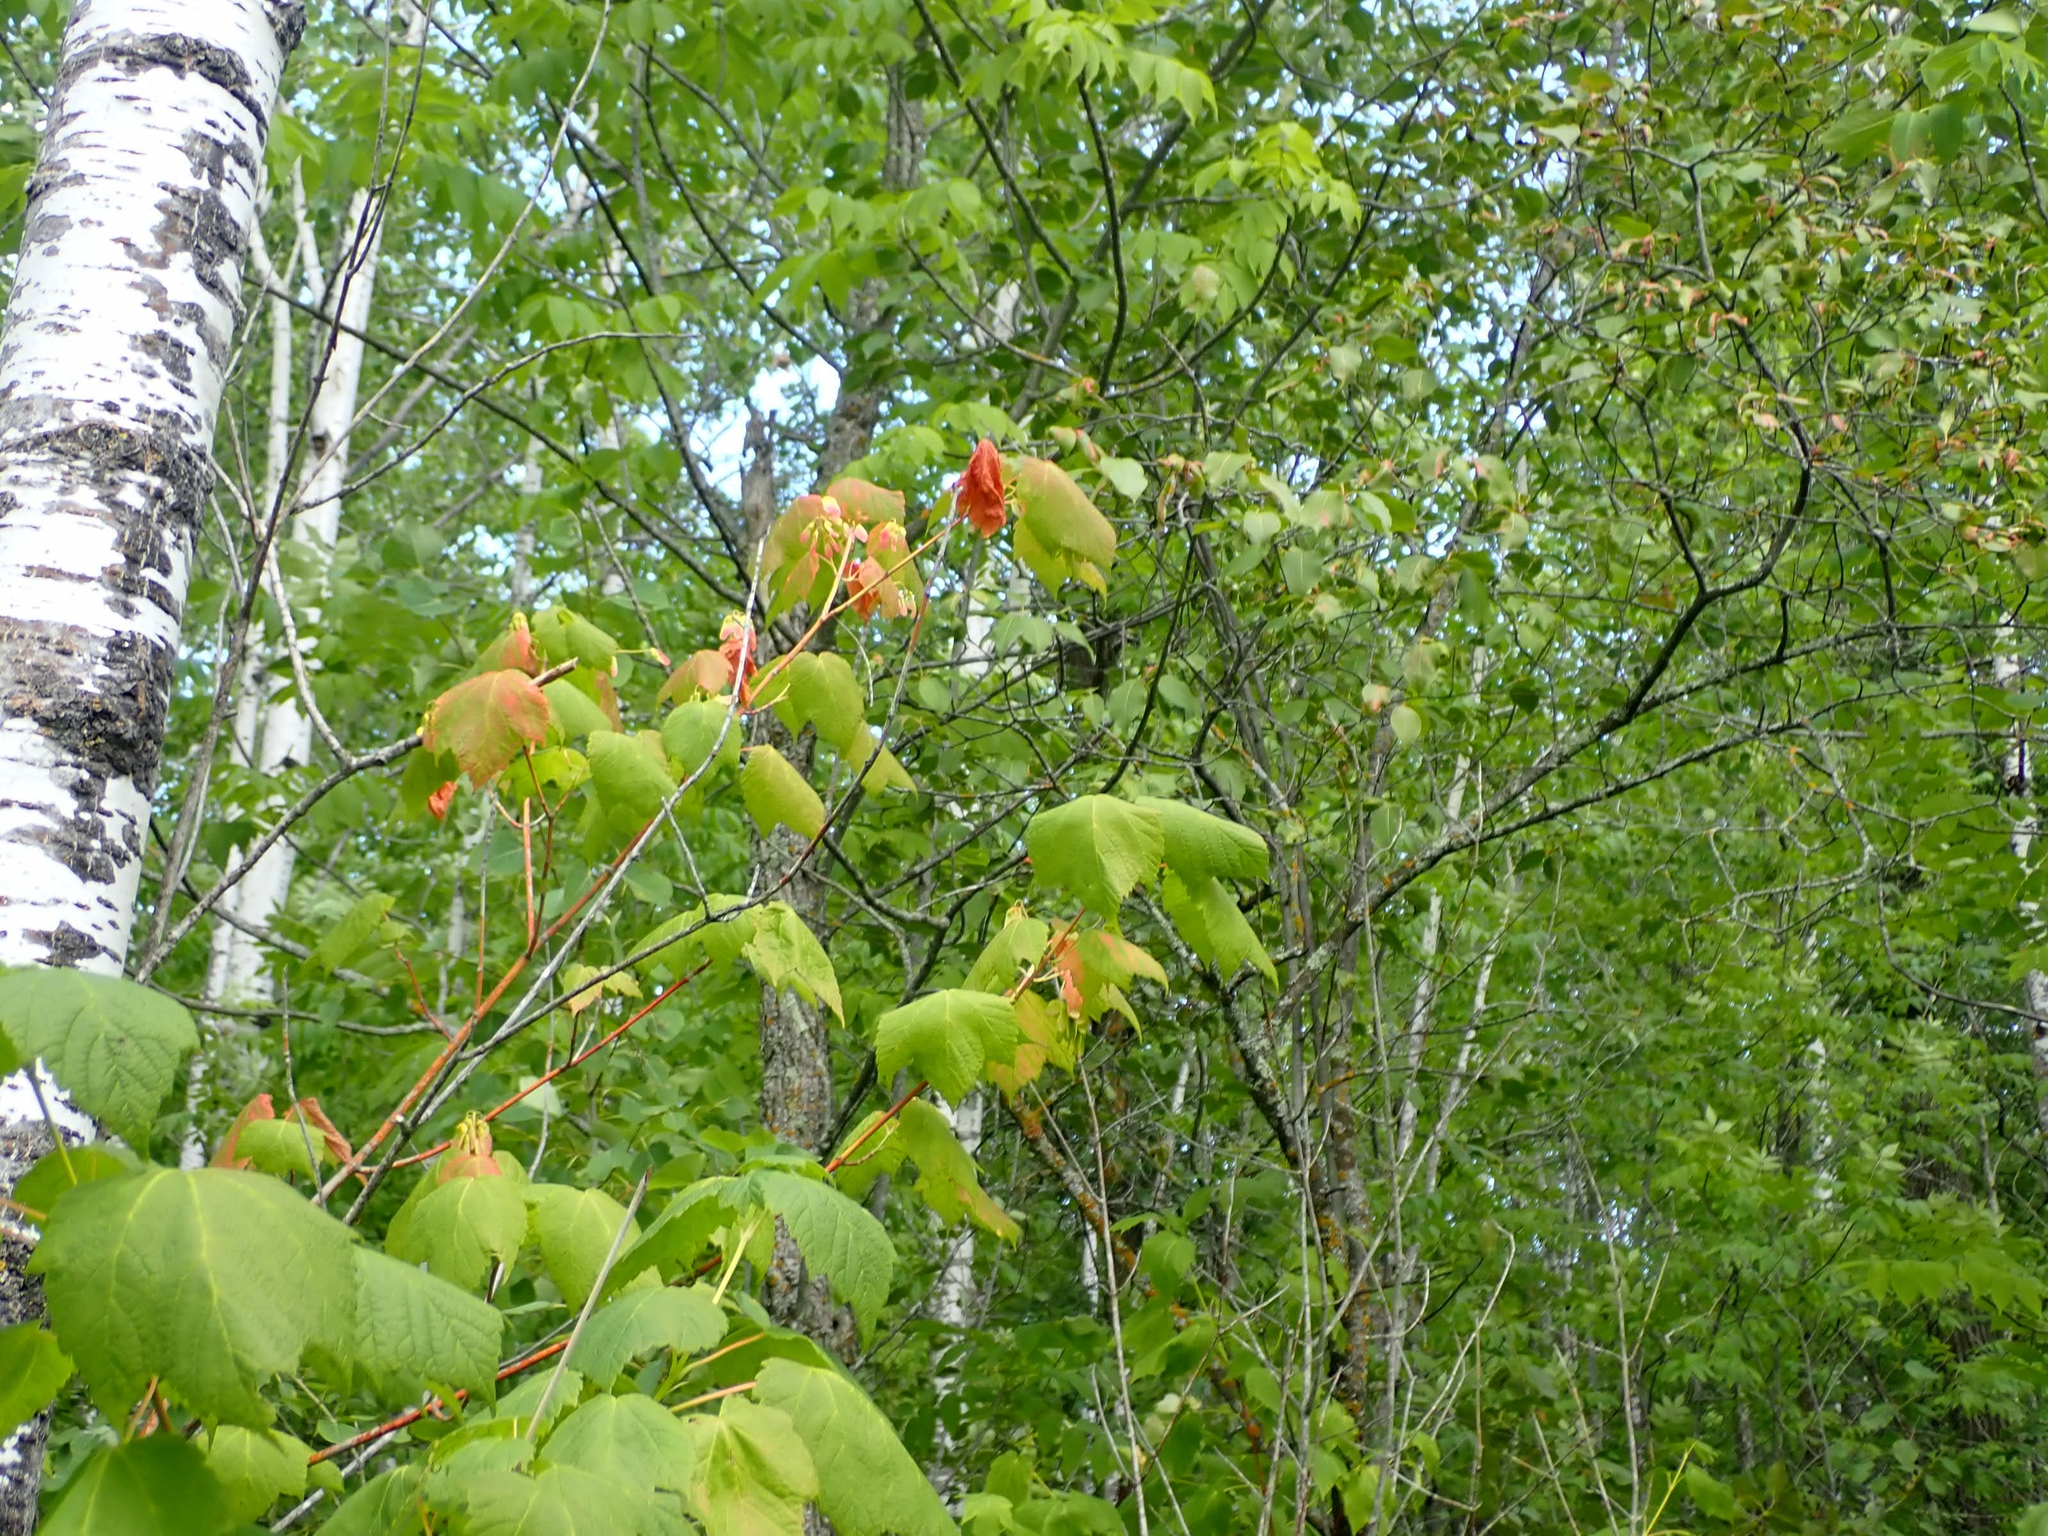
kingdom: Plantae
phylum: Tracheophyta
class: Magnoliopsida
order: Sapindales
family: Sapindaceae
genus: Acer
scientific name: Acer spicatum
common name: Mountain maple
